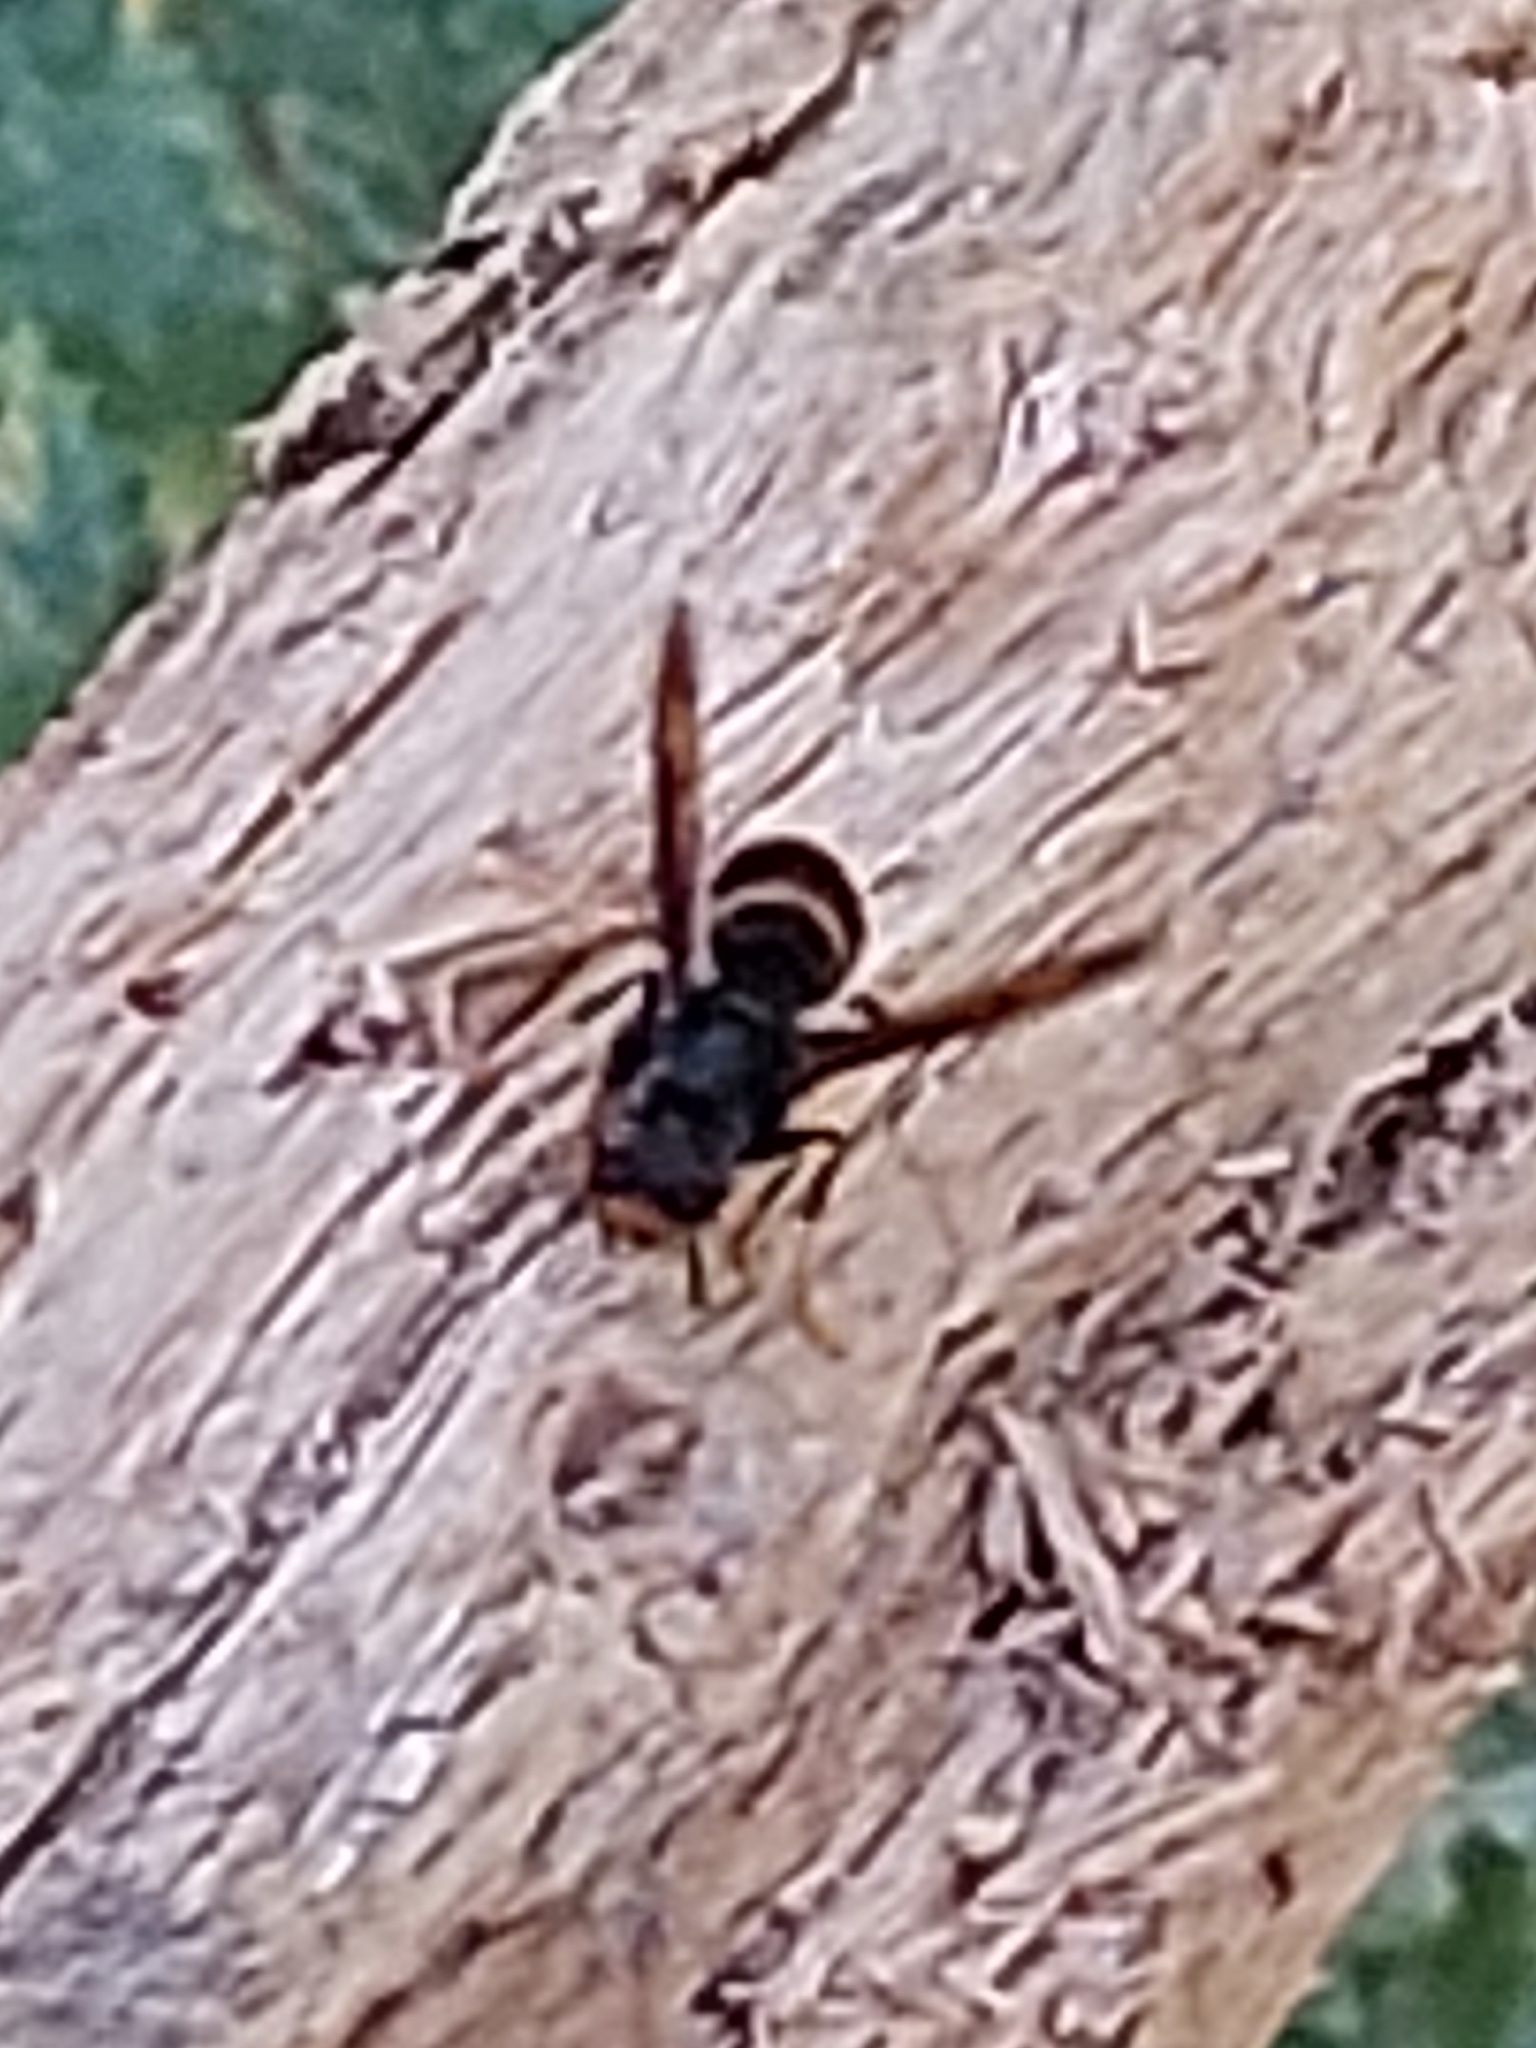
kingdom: Animalia
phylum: Arthropoda
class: Insecta
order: Hymenoptera
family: Vespidae
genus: Vespa
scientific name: Vespa velutina
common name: Asian hornet
